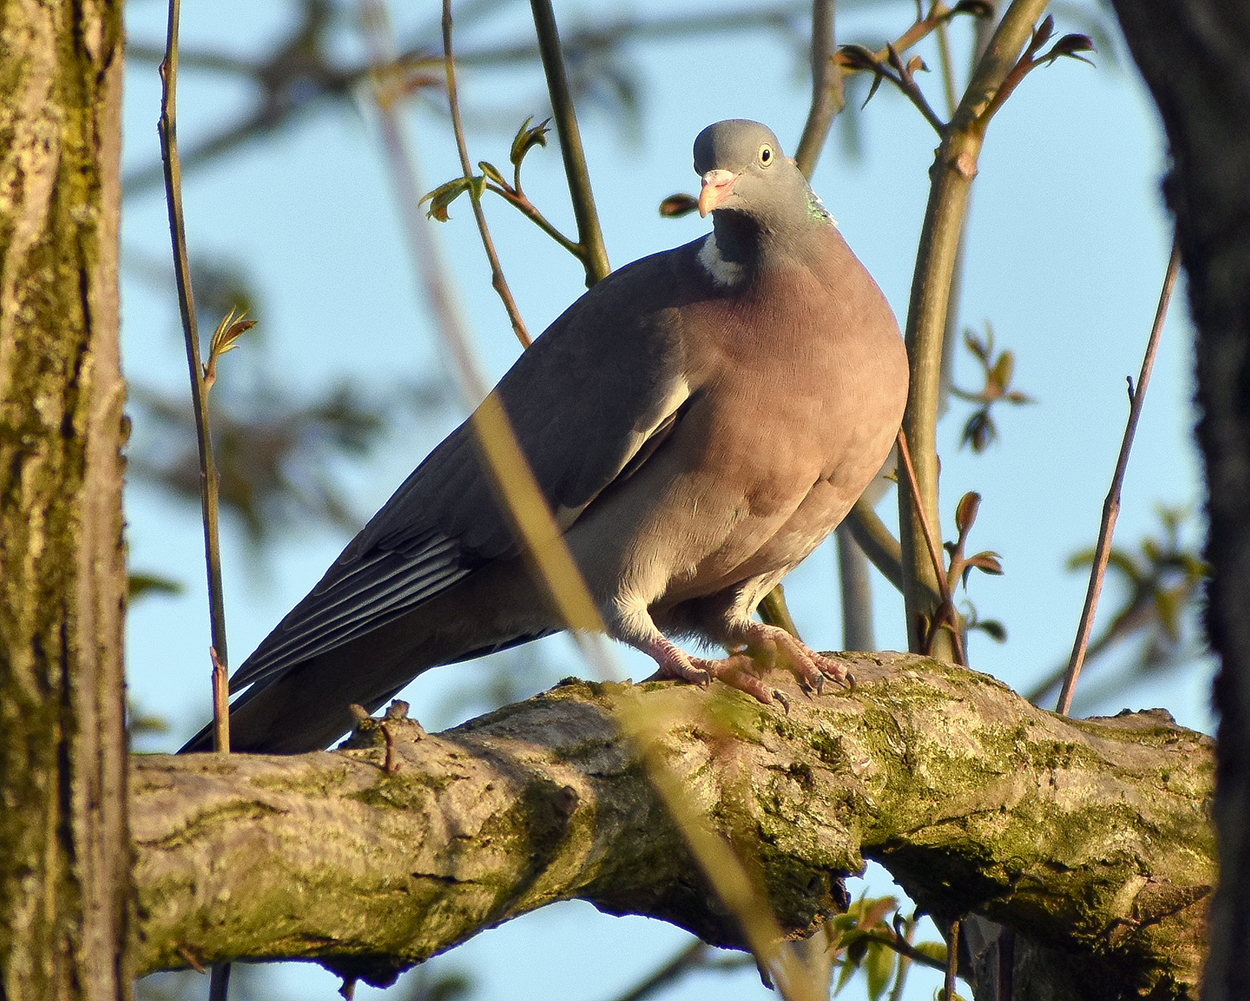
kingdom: Animalia
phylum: Chordata
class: Aves
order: Columbiformes
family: Columbidae
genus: Columba
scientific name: Columba palumbus
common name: Common wood pigeon
